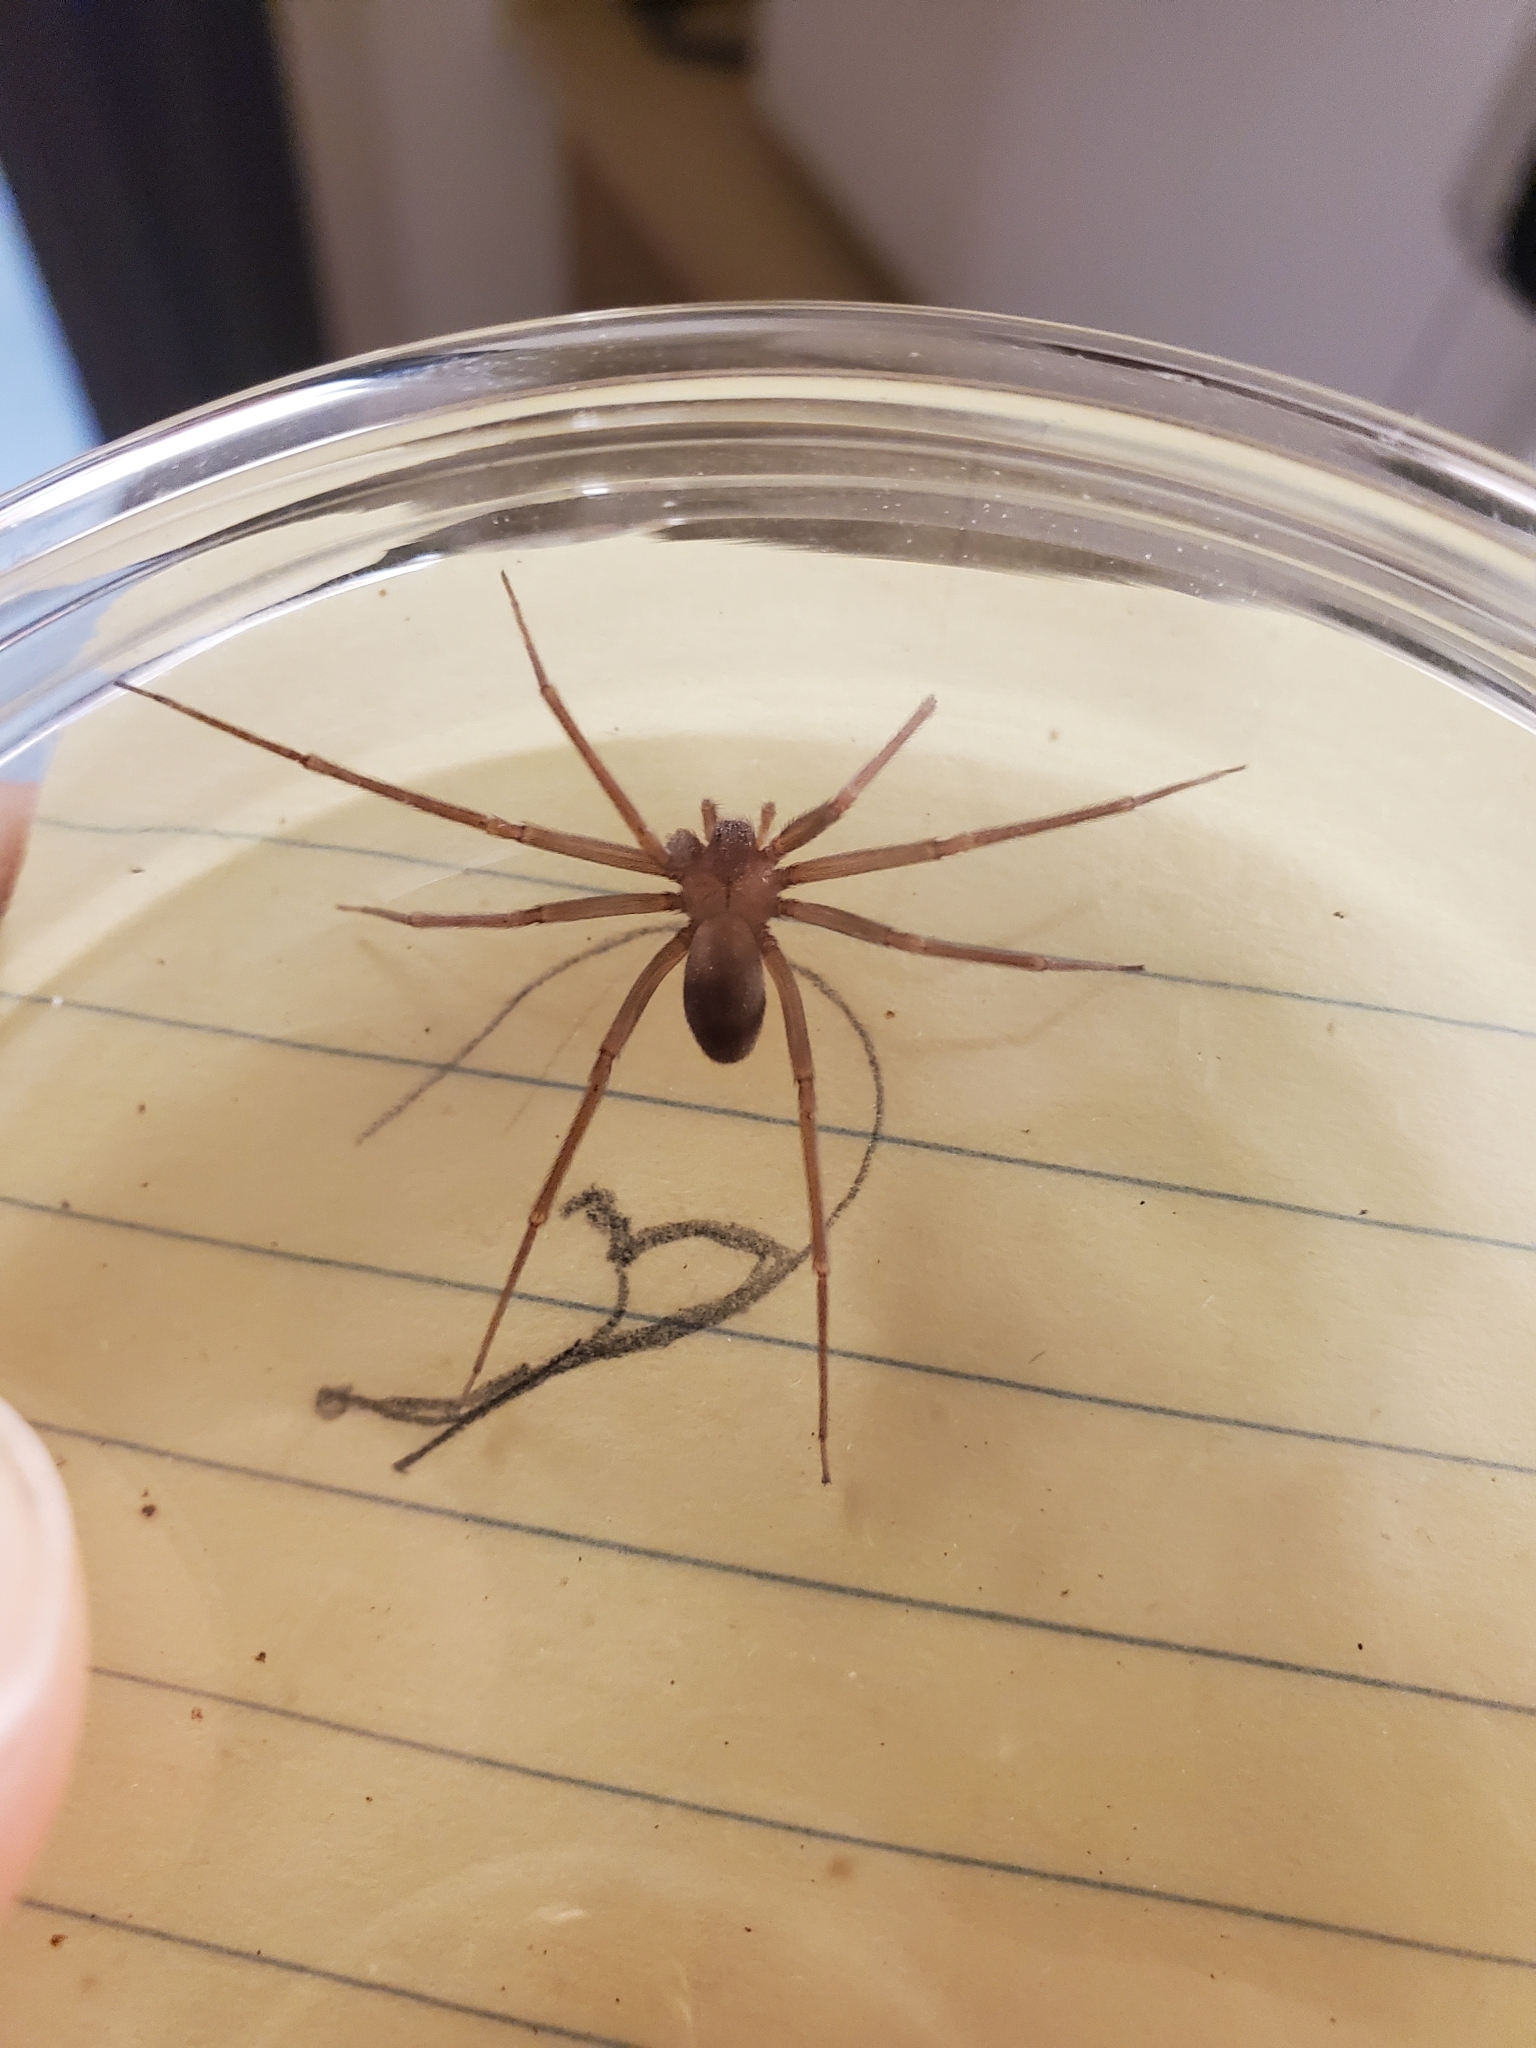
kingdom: Animalia
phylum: Arthropoda
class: Arachnida
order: Araneae
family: Sicariidae
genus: Loxosceles
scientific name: Loxosceles reclusa
